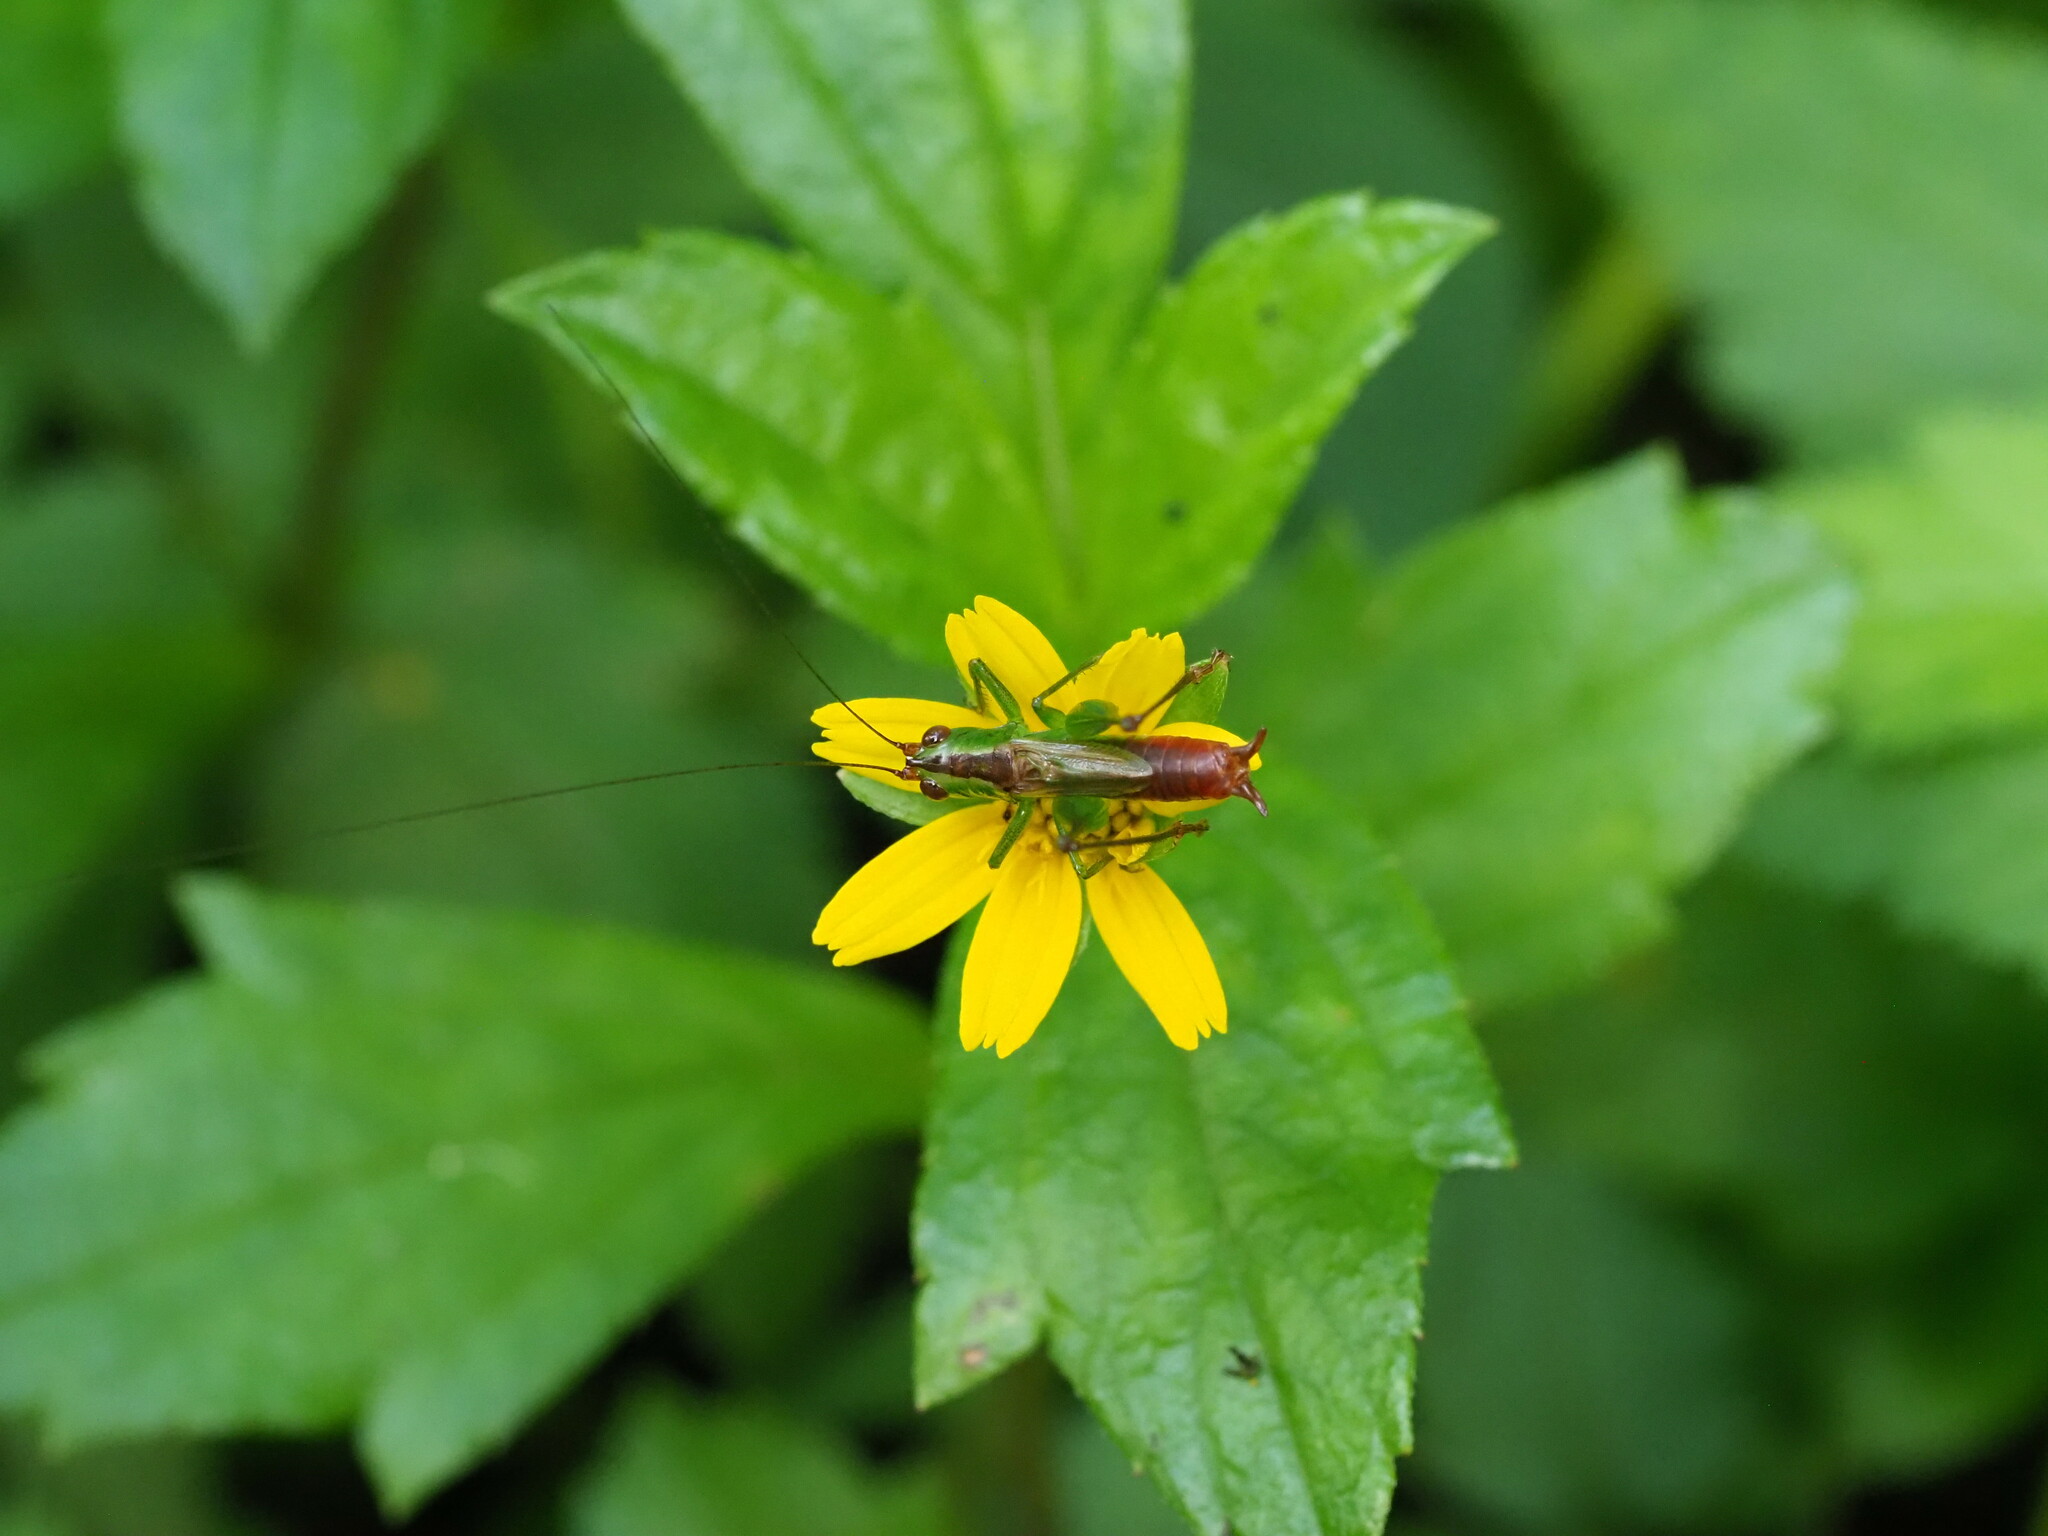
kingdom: Animalia
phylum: Arthropoda
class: Insecta
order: Orthoptera
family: Tettigoniidae
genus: Conocephalus
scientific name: Conocephalus saltator
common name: Katydid
